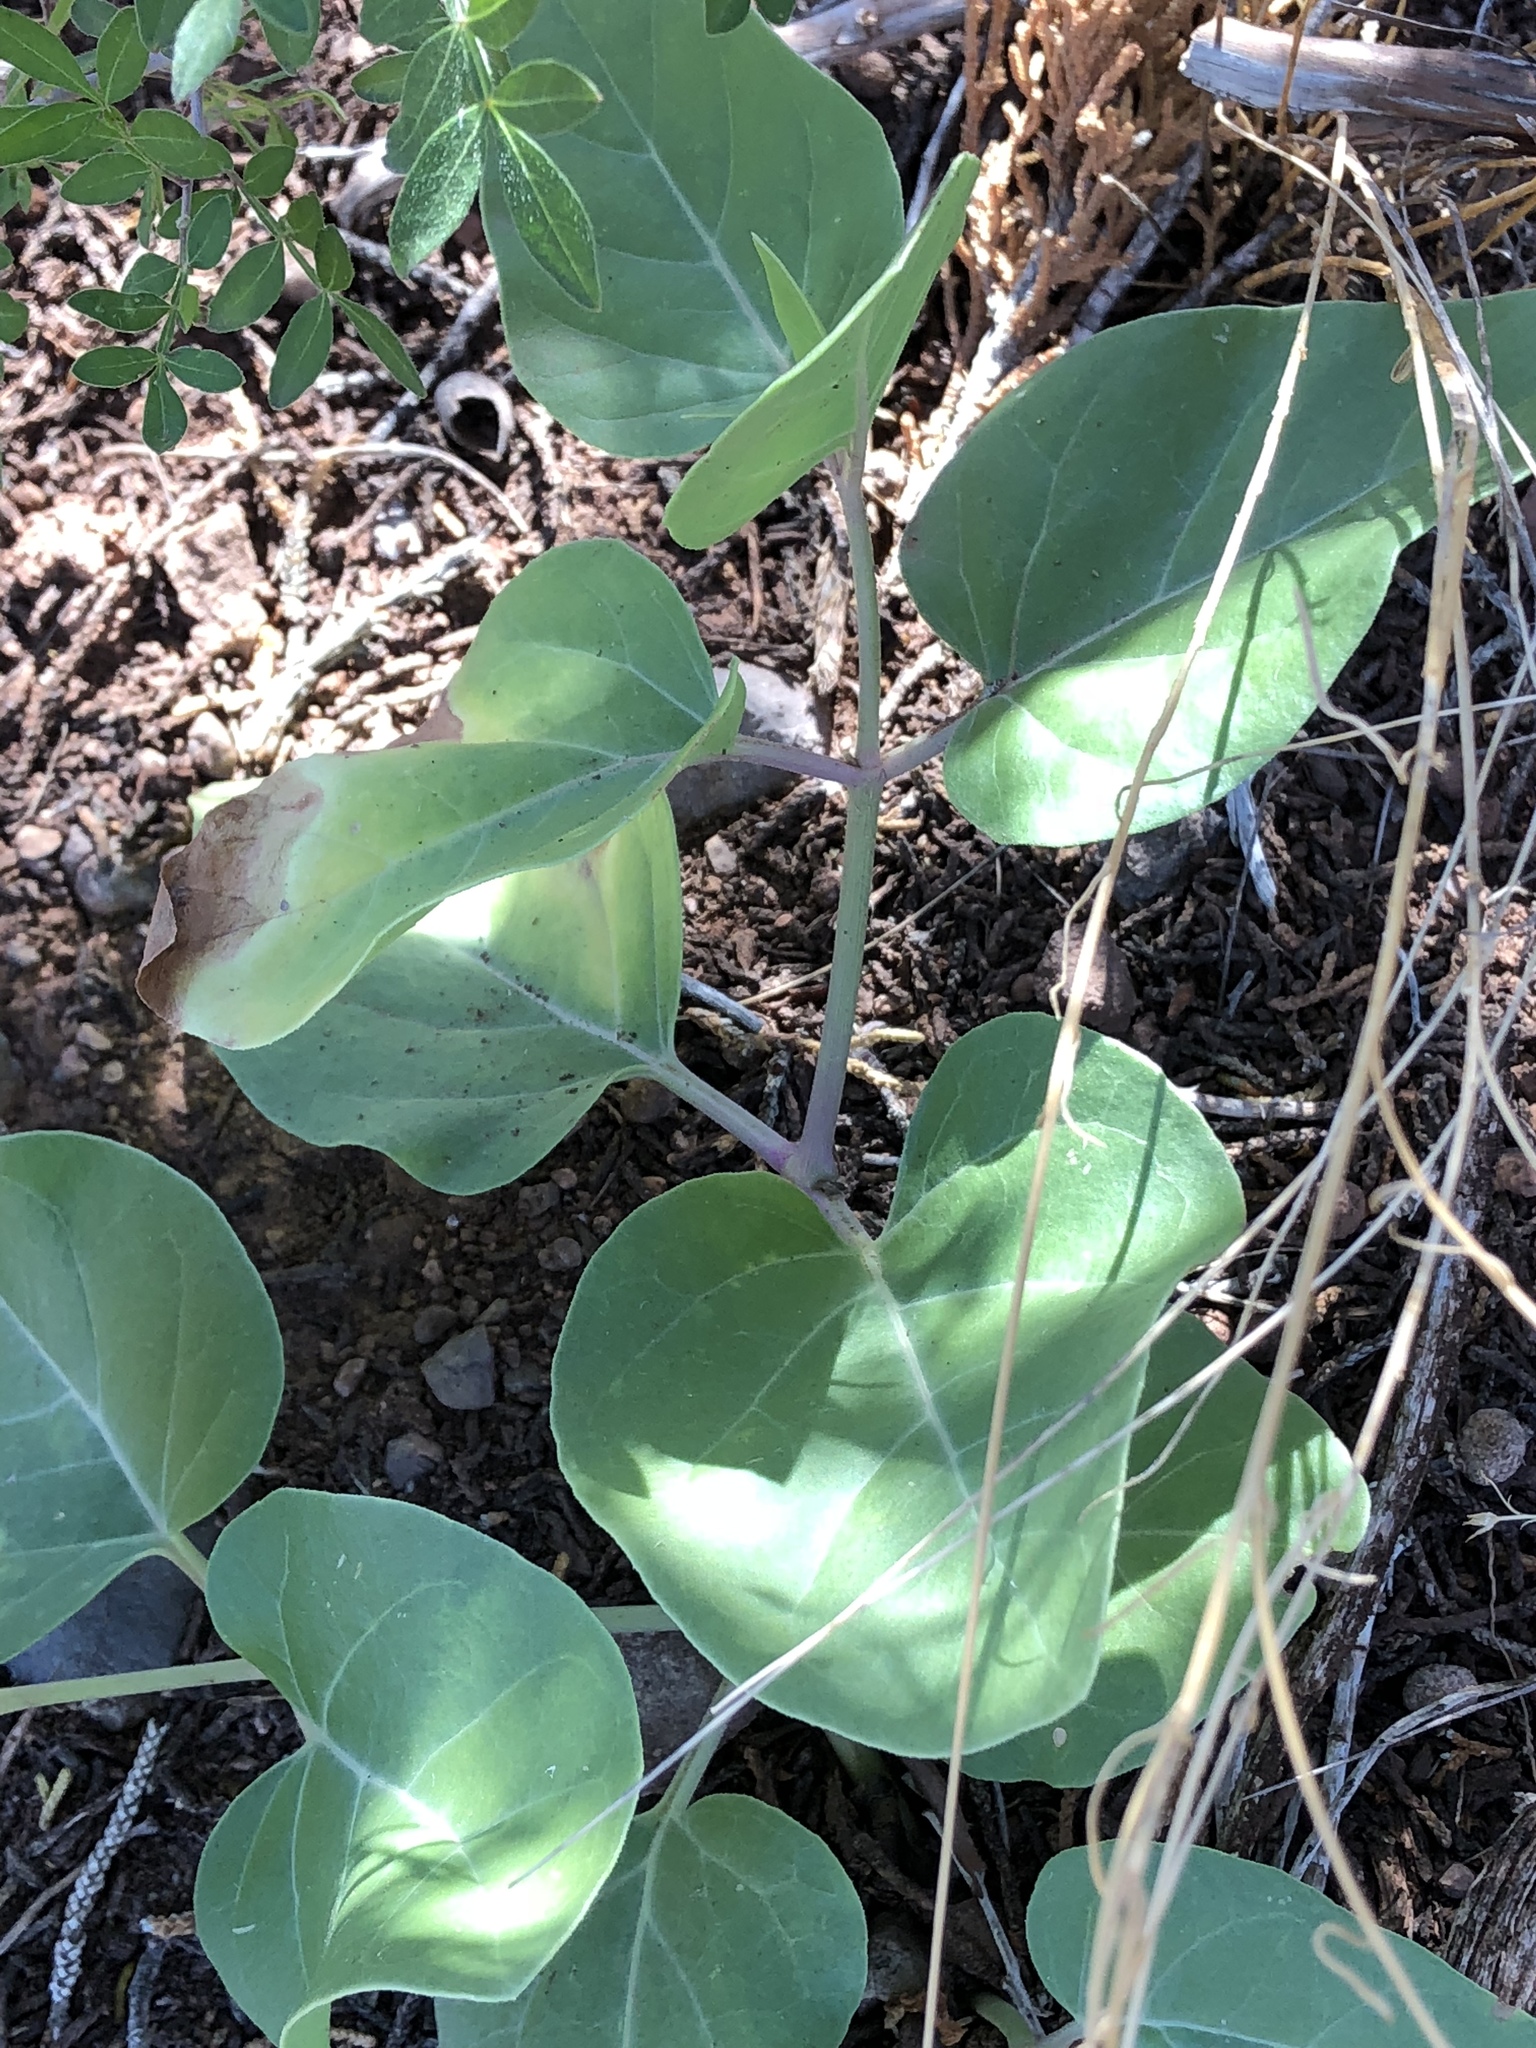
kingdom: Plantae
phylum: Tracheophyta
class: Magnoliopsida
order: Caryophyllales
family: Nyctaginaceae
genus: Mirabilis
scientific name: Mirabilis multiflora
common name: Froebel's four-o'clock
